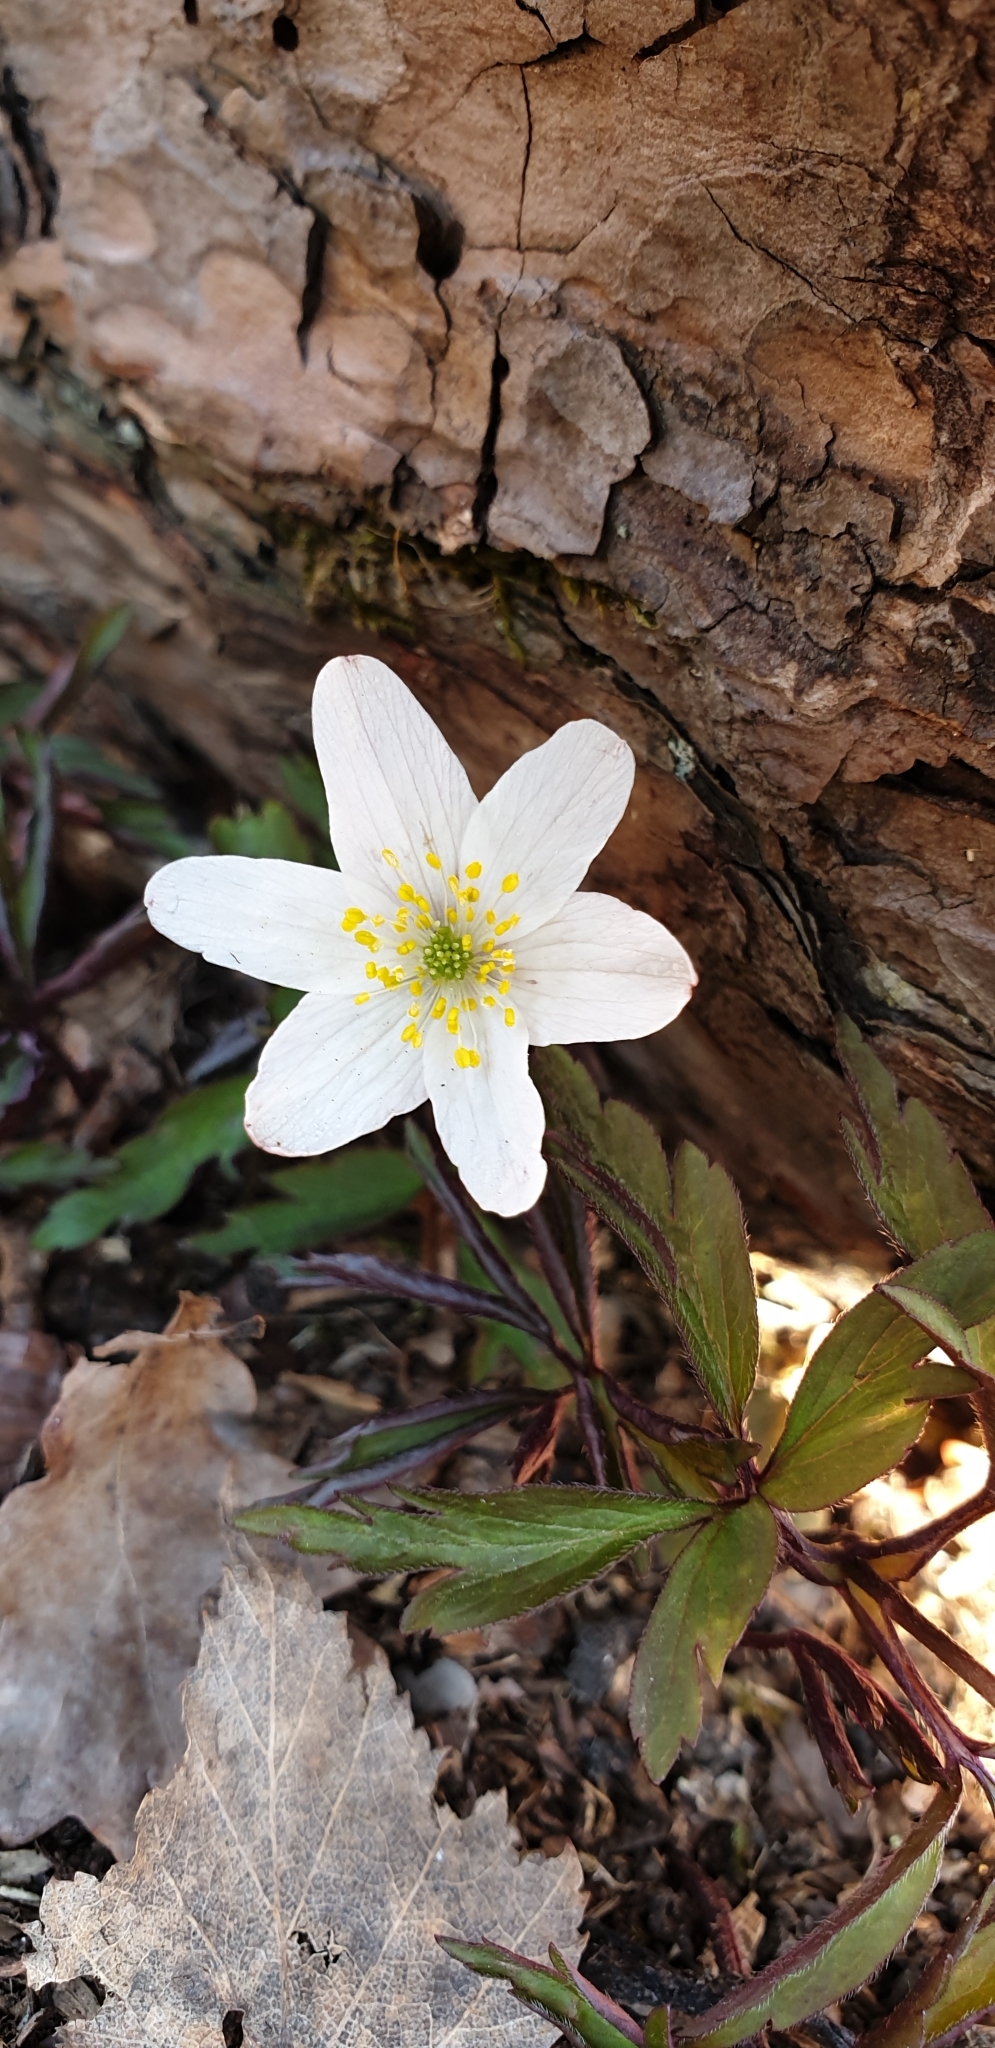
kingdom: Plantae
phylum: Tracheophyta
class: Magnoliopsida
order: Ranunculales
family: Ranunculaceae
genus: Anemone
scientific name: Anemone nemorosa
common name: Wood anemone
